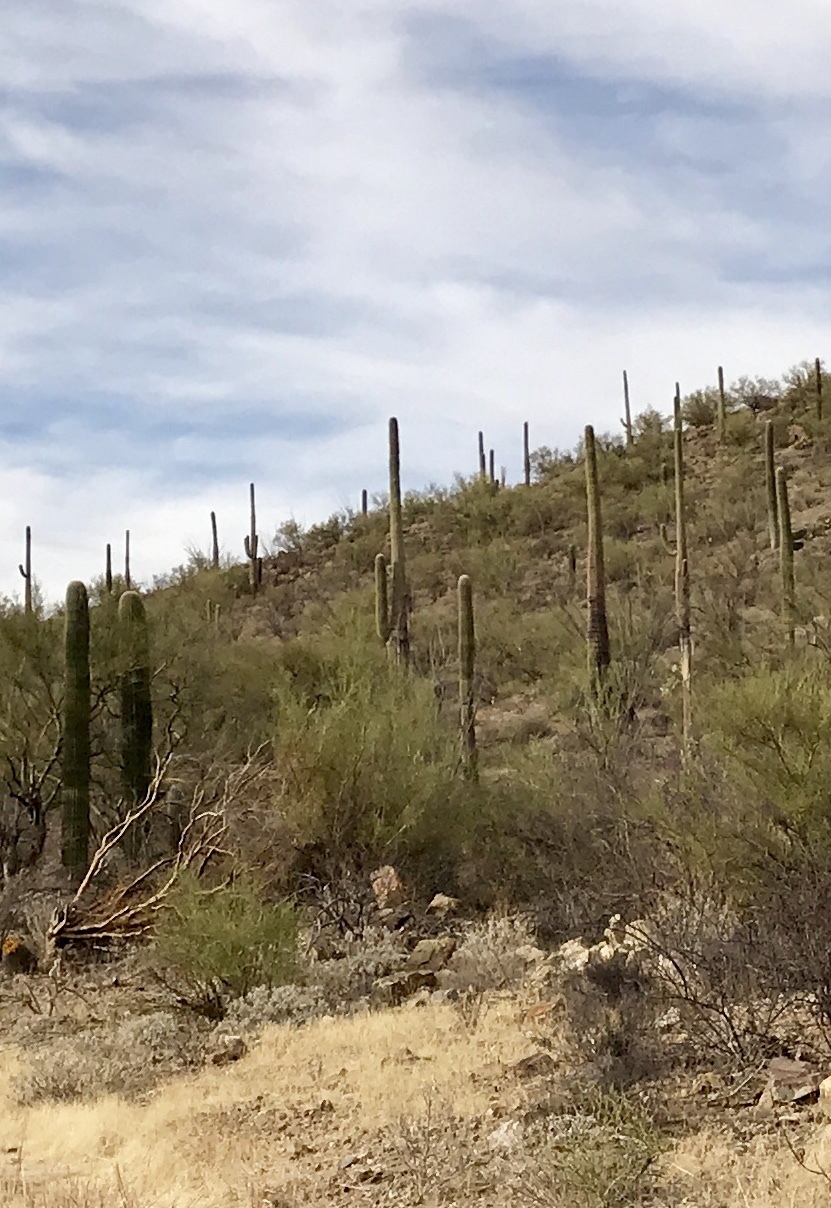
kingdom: Plantae
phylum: Tracheophyta
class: Magnoliopsida
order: Caryophyllales
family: Cactaceae
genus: Carnegiea
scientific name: Carnegiea gigantea
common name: Saguaro
